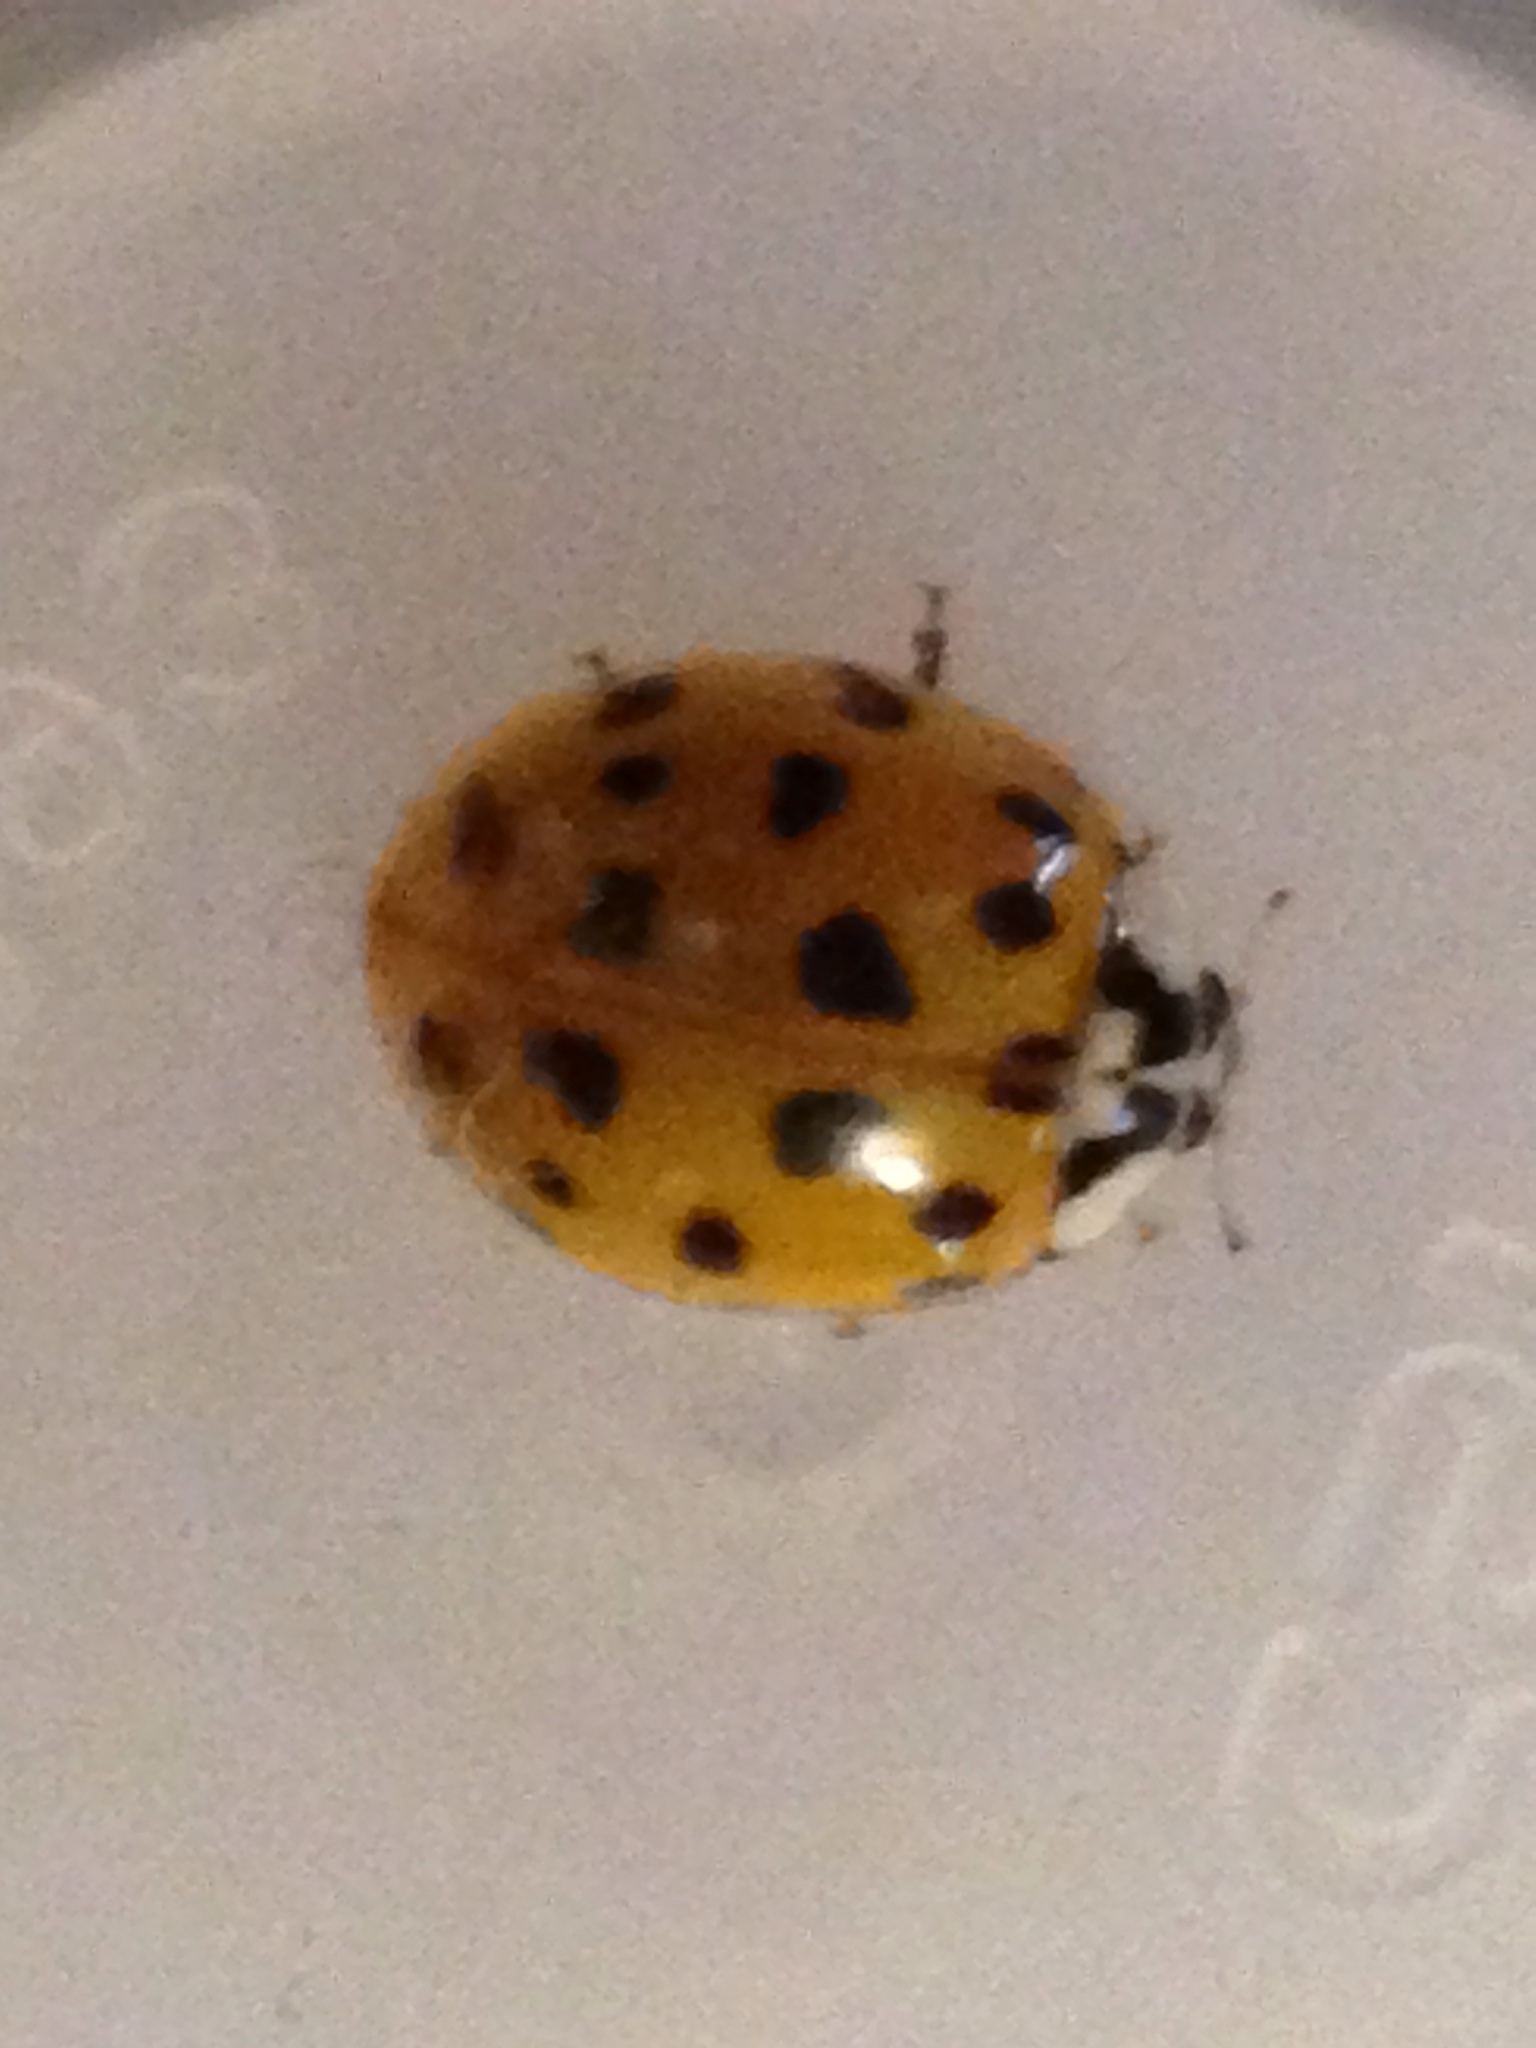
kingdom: Animalia
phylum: Arthropoda
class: Insecta
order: Coleoptera
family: Coccinellidae
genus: Harmonia
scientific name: Harmonia axyridis
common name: Harlequin ladybird
